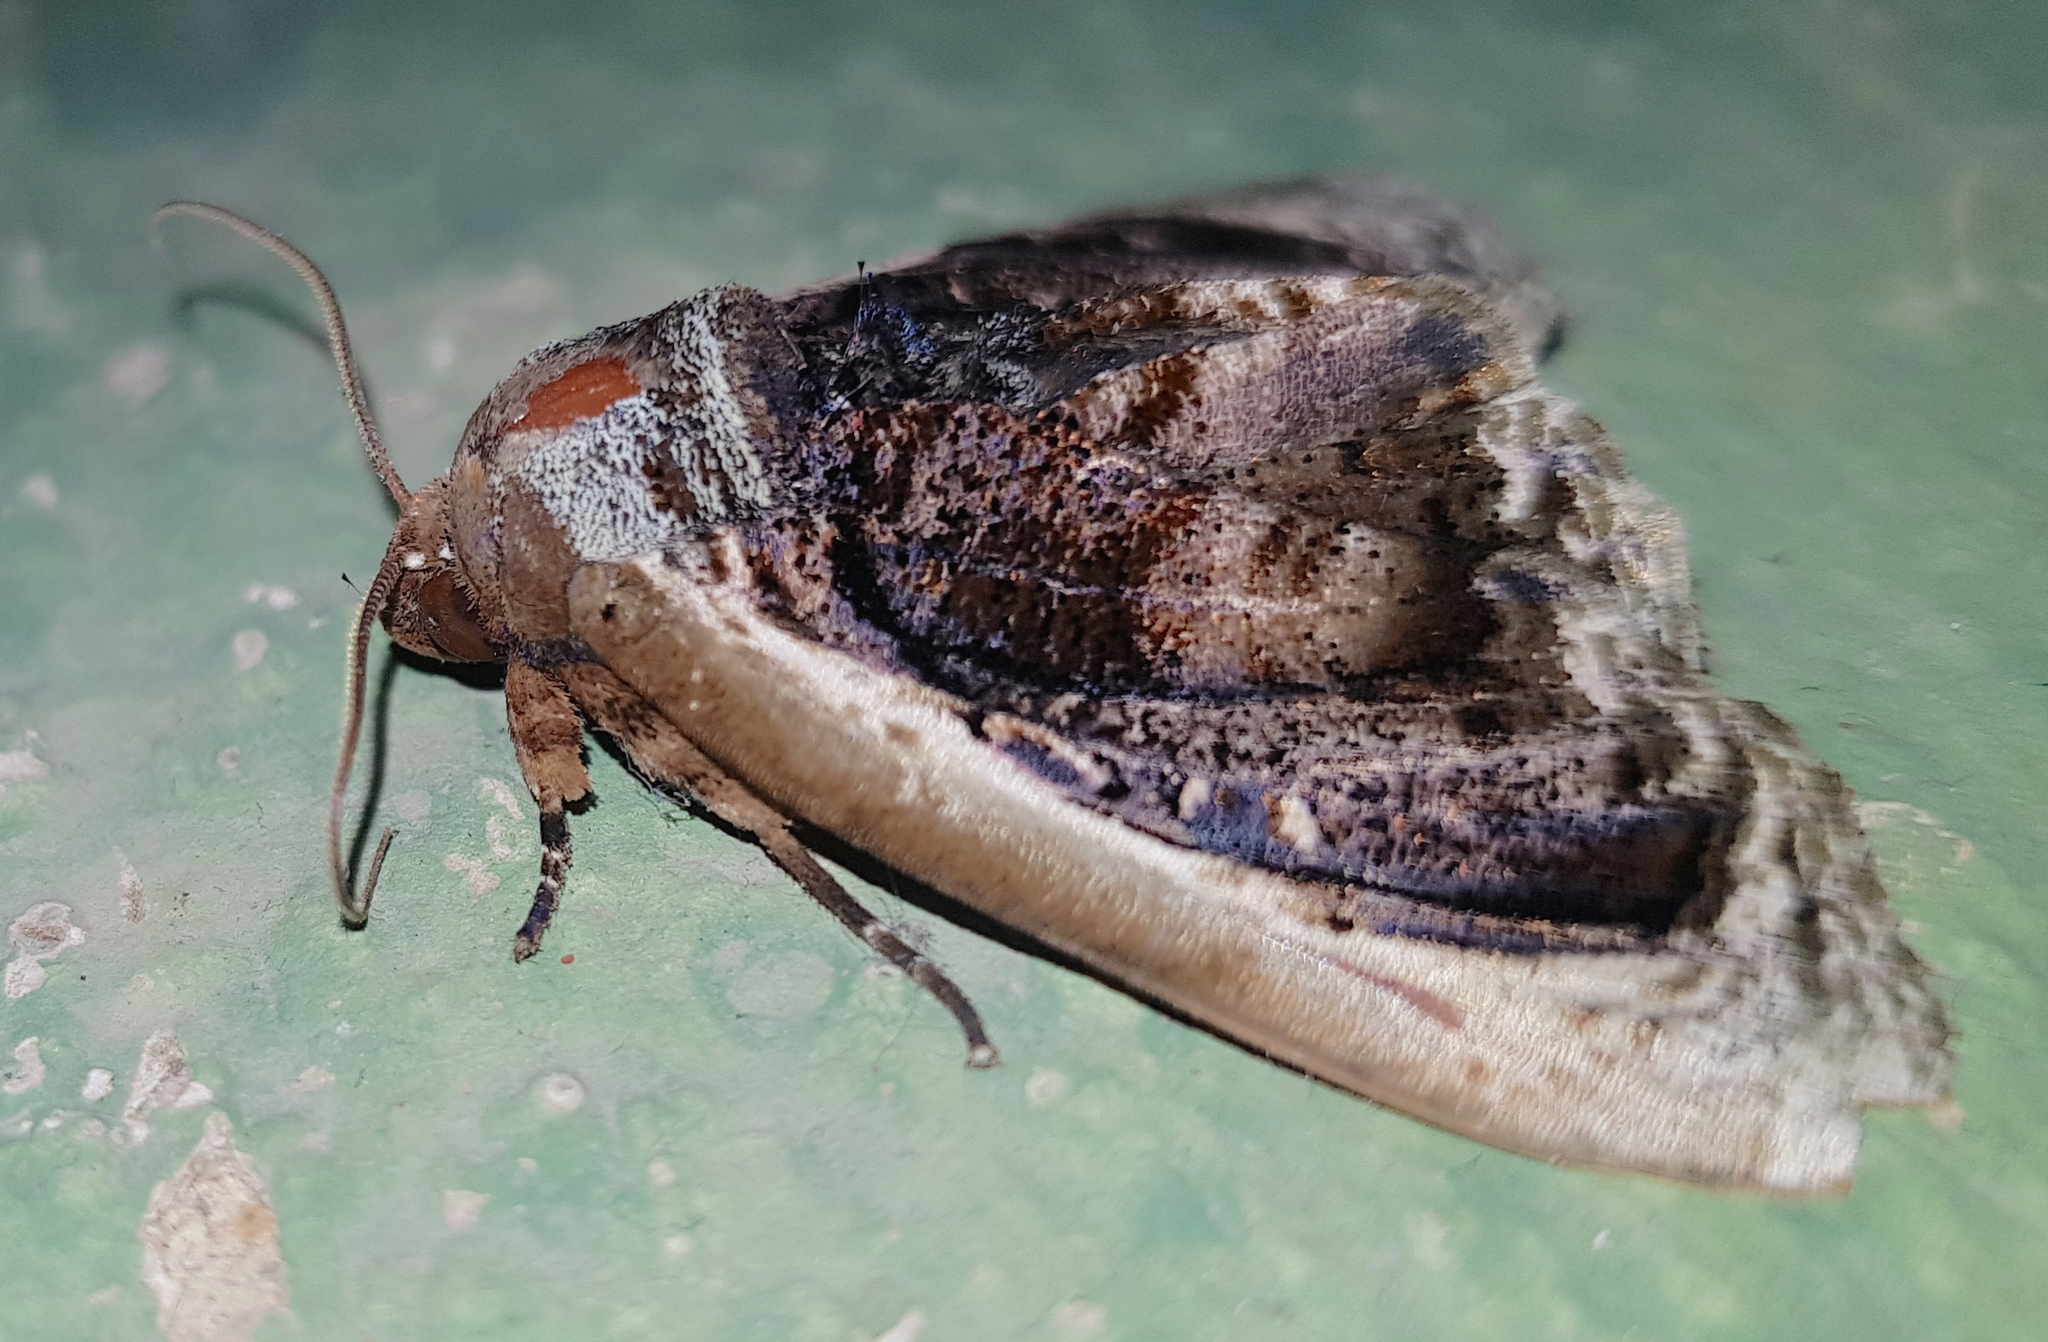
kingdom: Animalia
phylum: Arthropoda
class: Insecta
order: Lepidoptera
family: Erebidae
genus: Lepidodes
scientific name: Lepidodes limbulata
